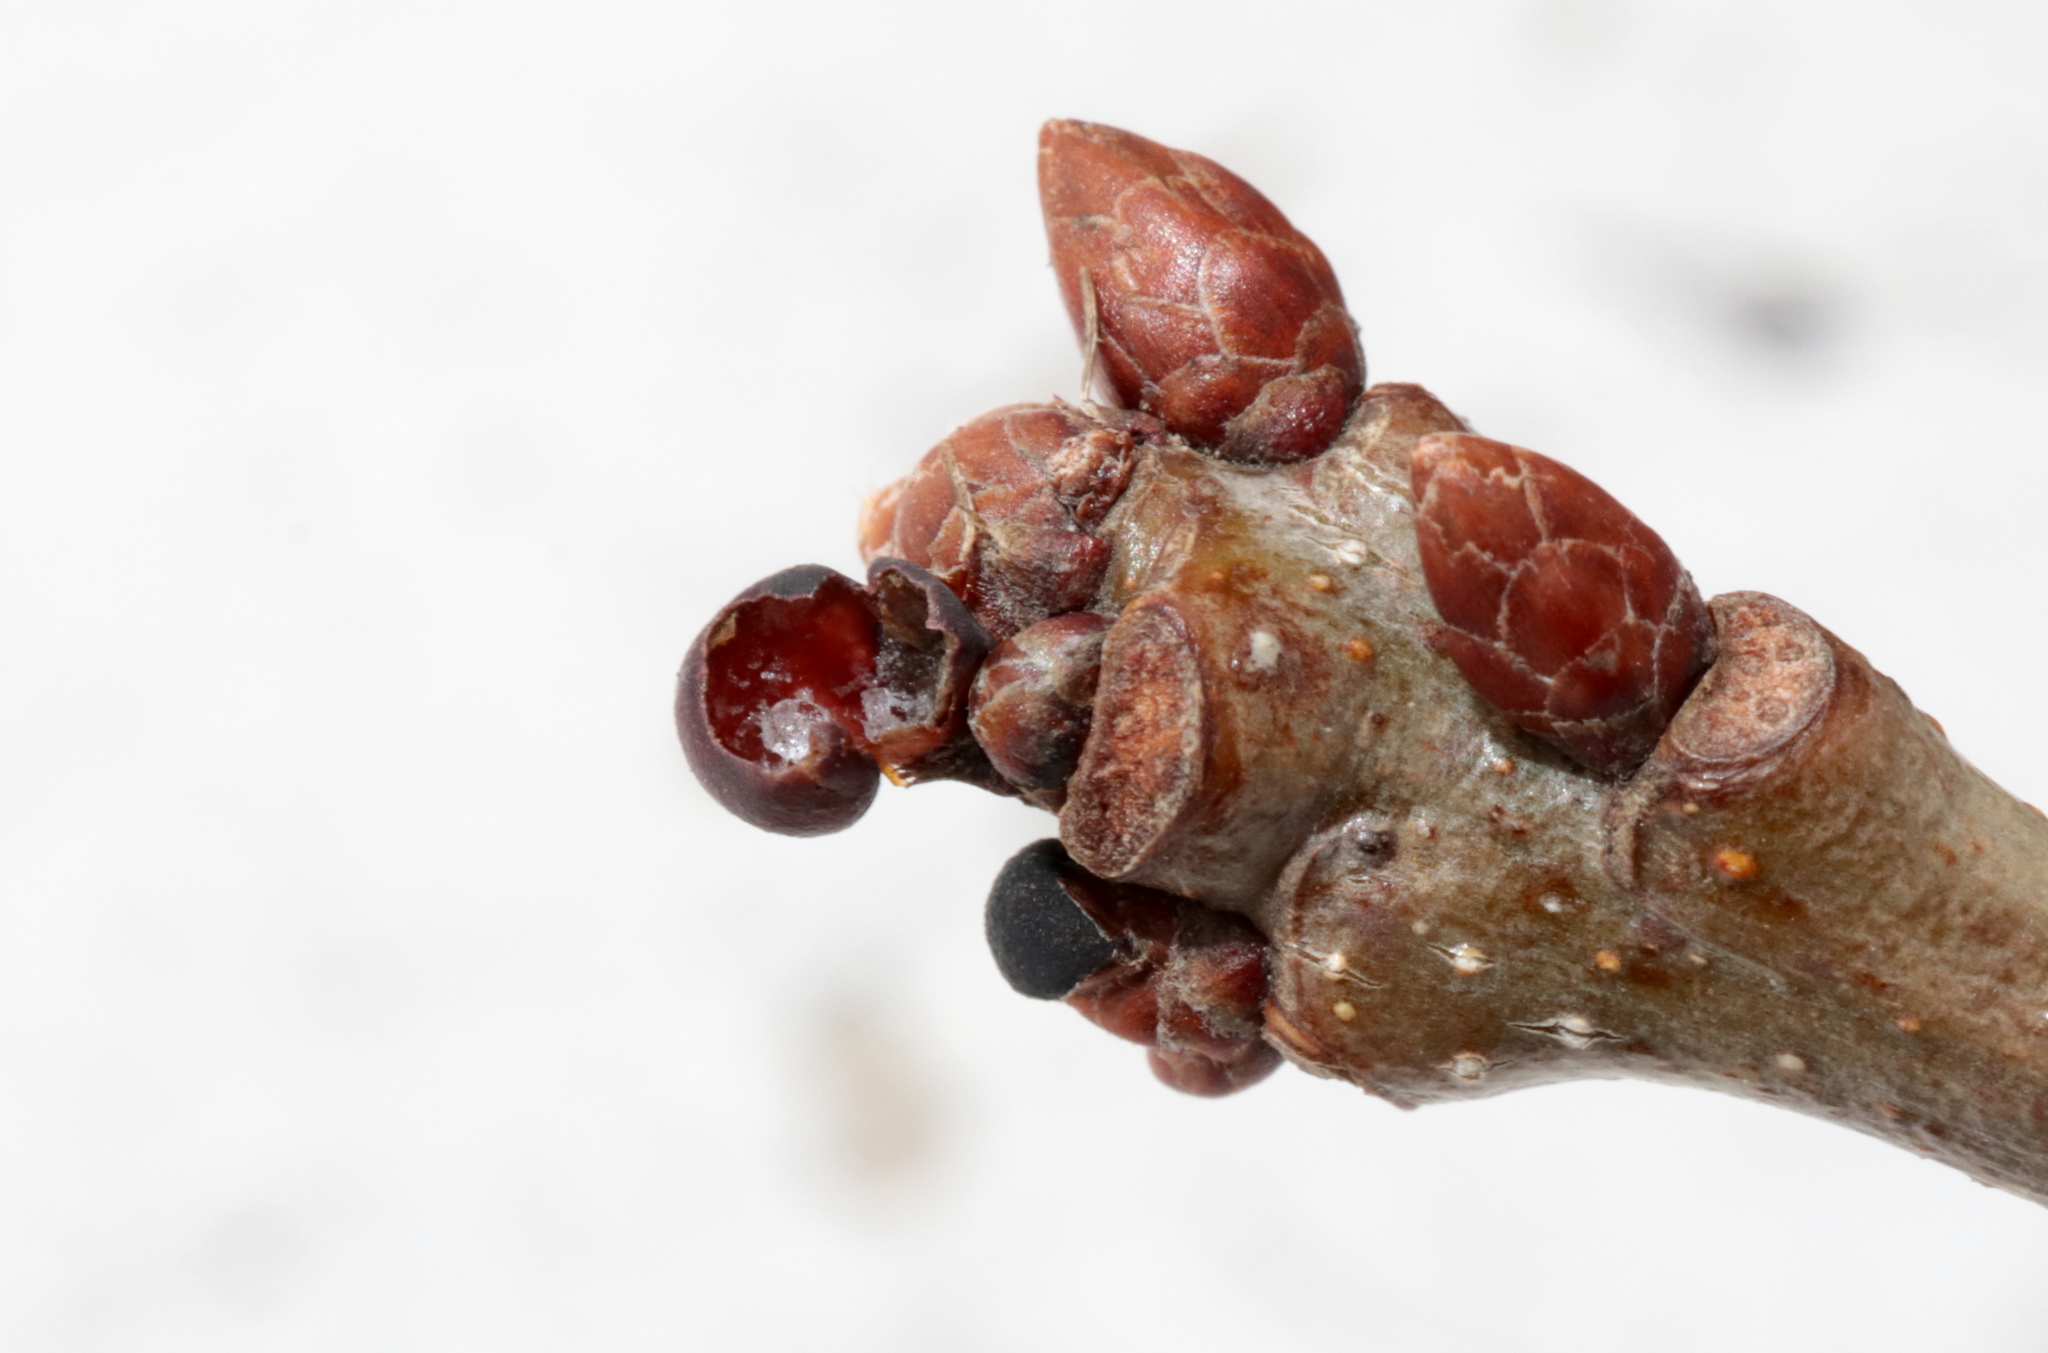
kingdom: Animalia
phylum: Arthropoda
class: Insecta
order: Hymenoptera
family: Cynipidae
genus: Neuroterus
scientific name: Neuroterus
